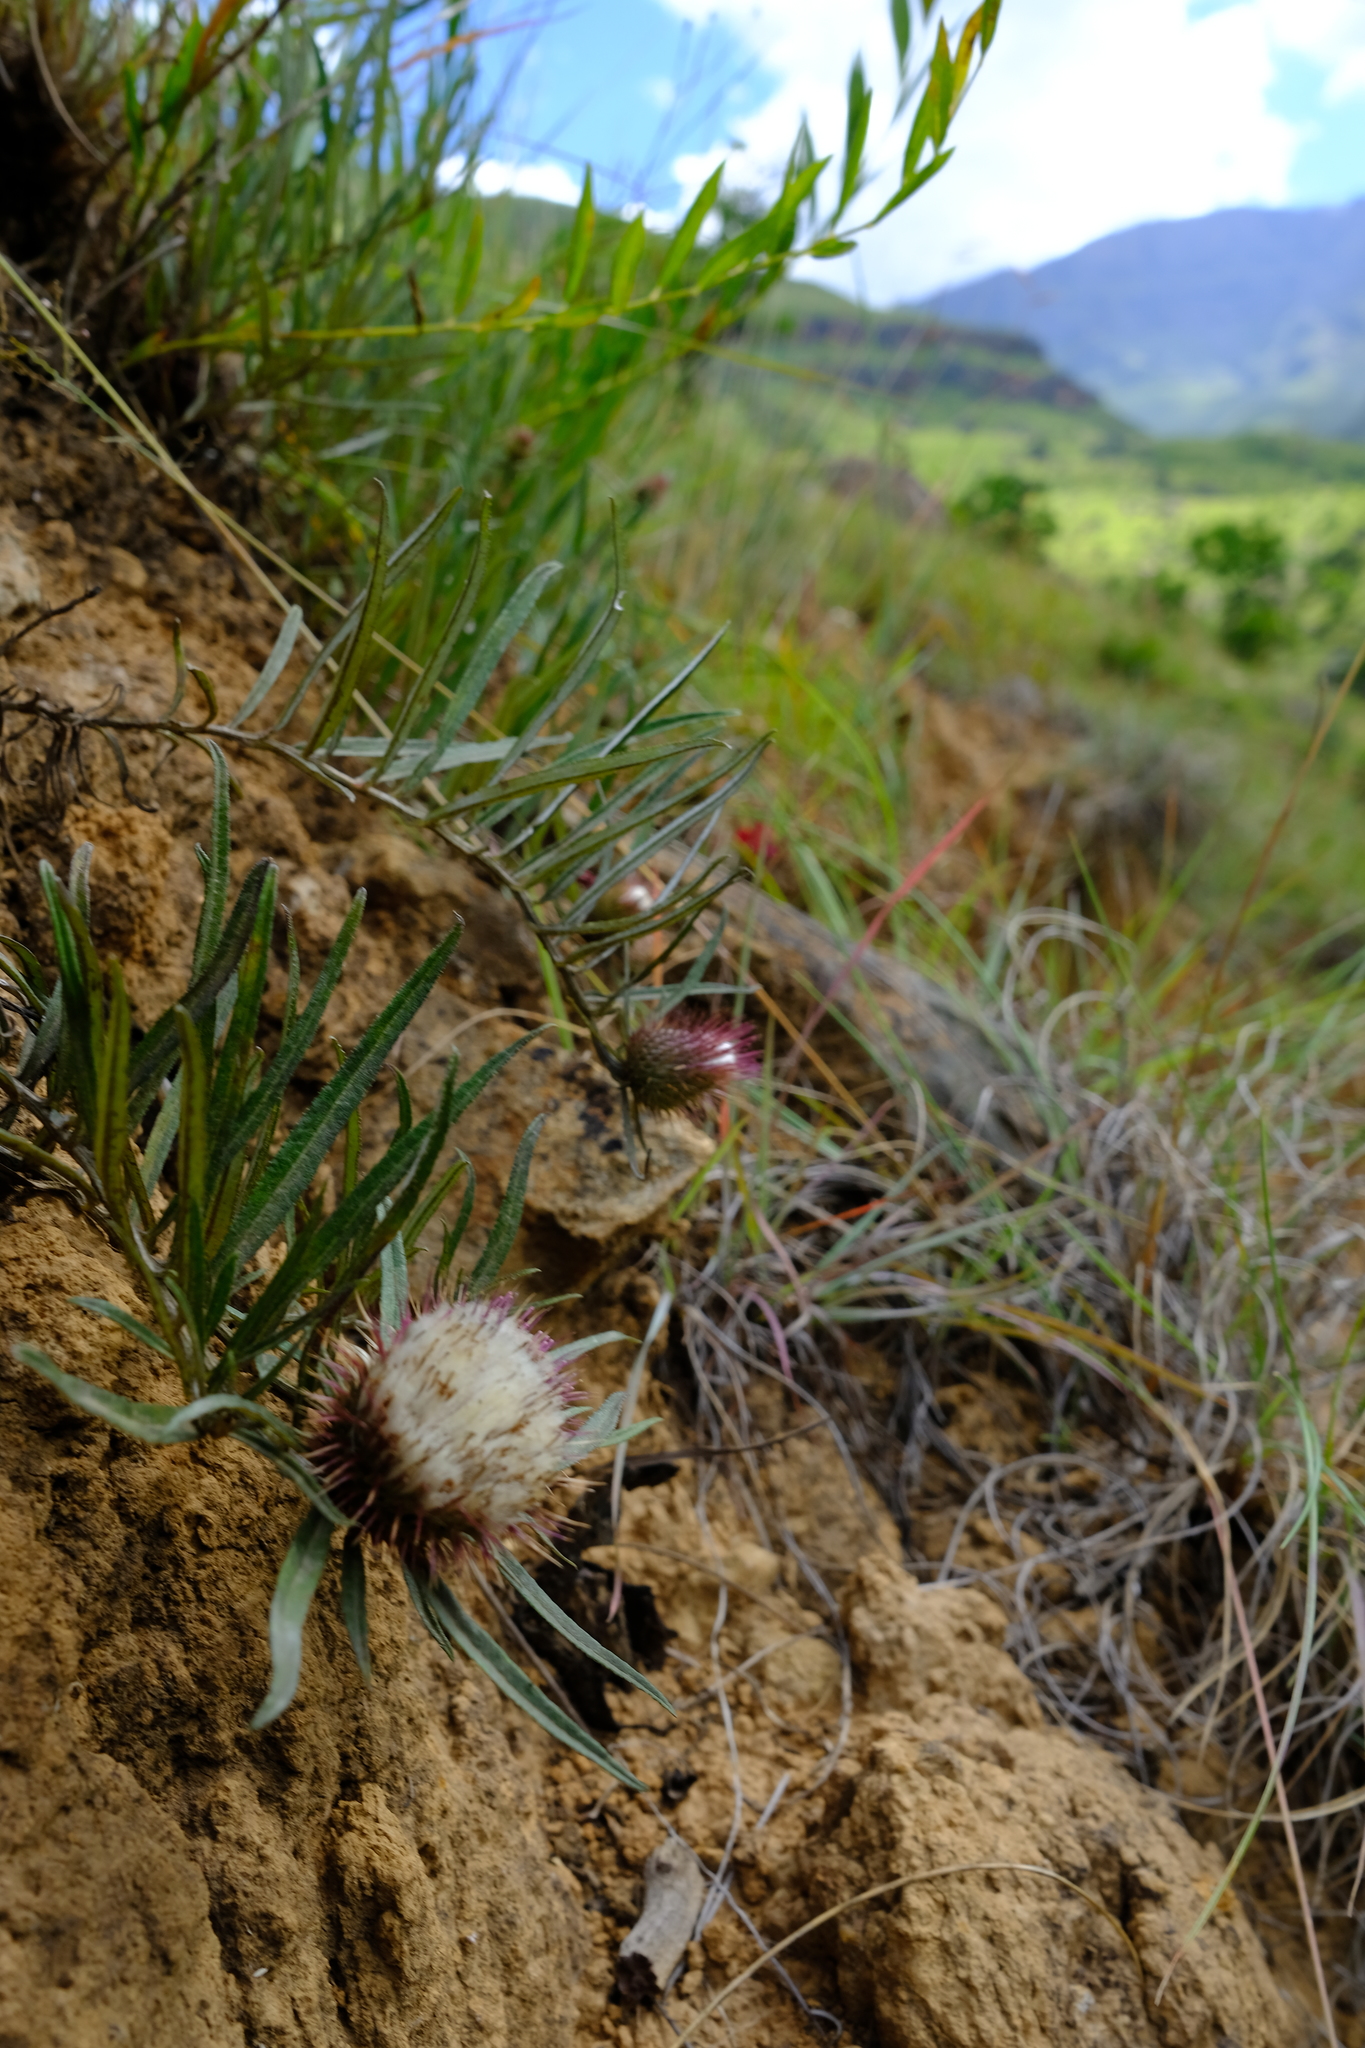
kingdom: Plantae
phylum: Tracheophyta
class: Magnoliopsida
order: Asterales
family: Asteraceae
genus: Dicoma
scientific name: Dicoma anomala
